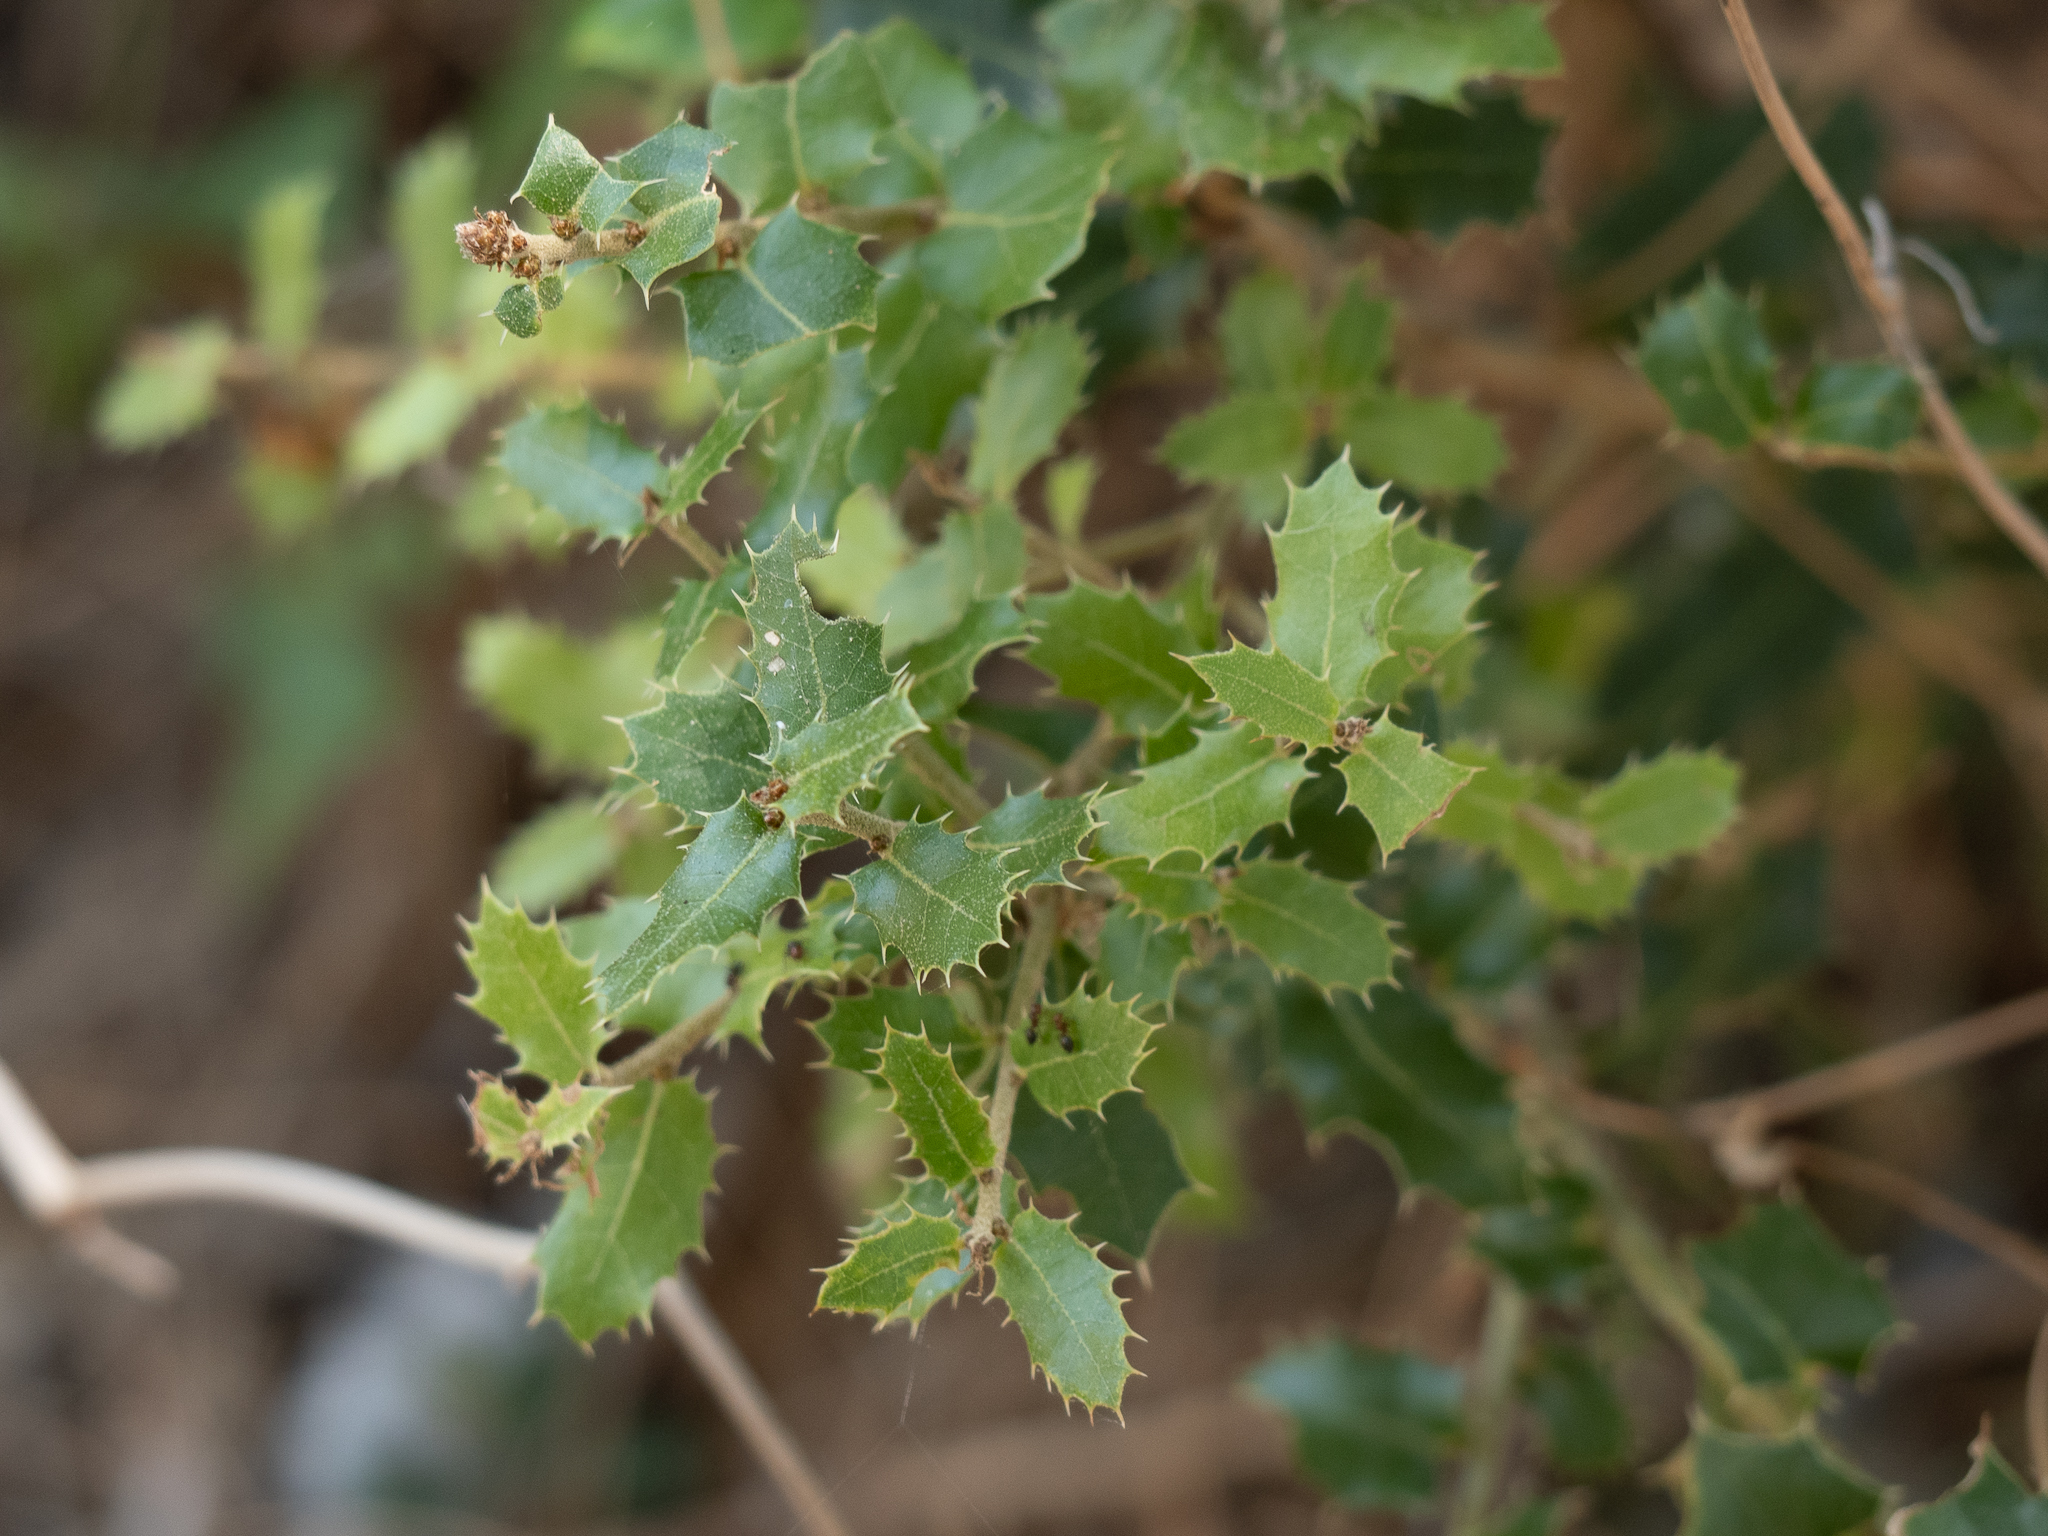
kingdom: Plantae
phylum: Tracheophyta
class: Magnoliopsida
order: Fagales
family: Fagaceae
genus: Quercus
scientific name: Quercus coccifera
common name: Kermes oak
